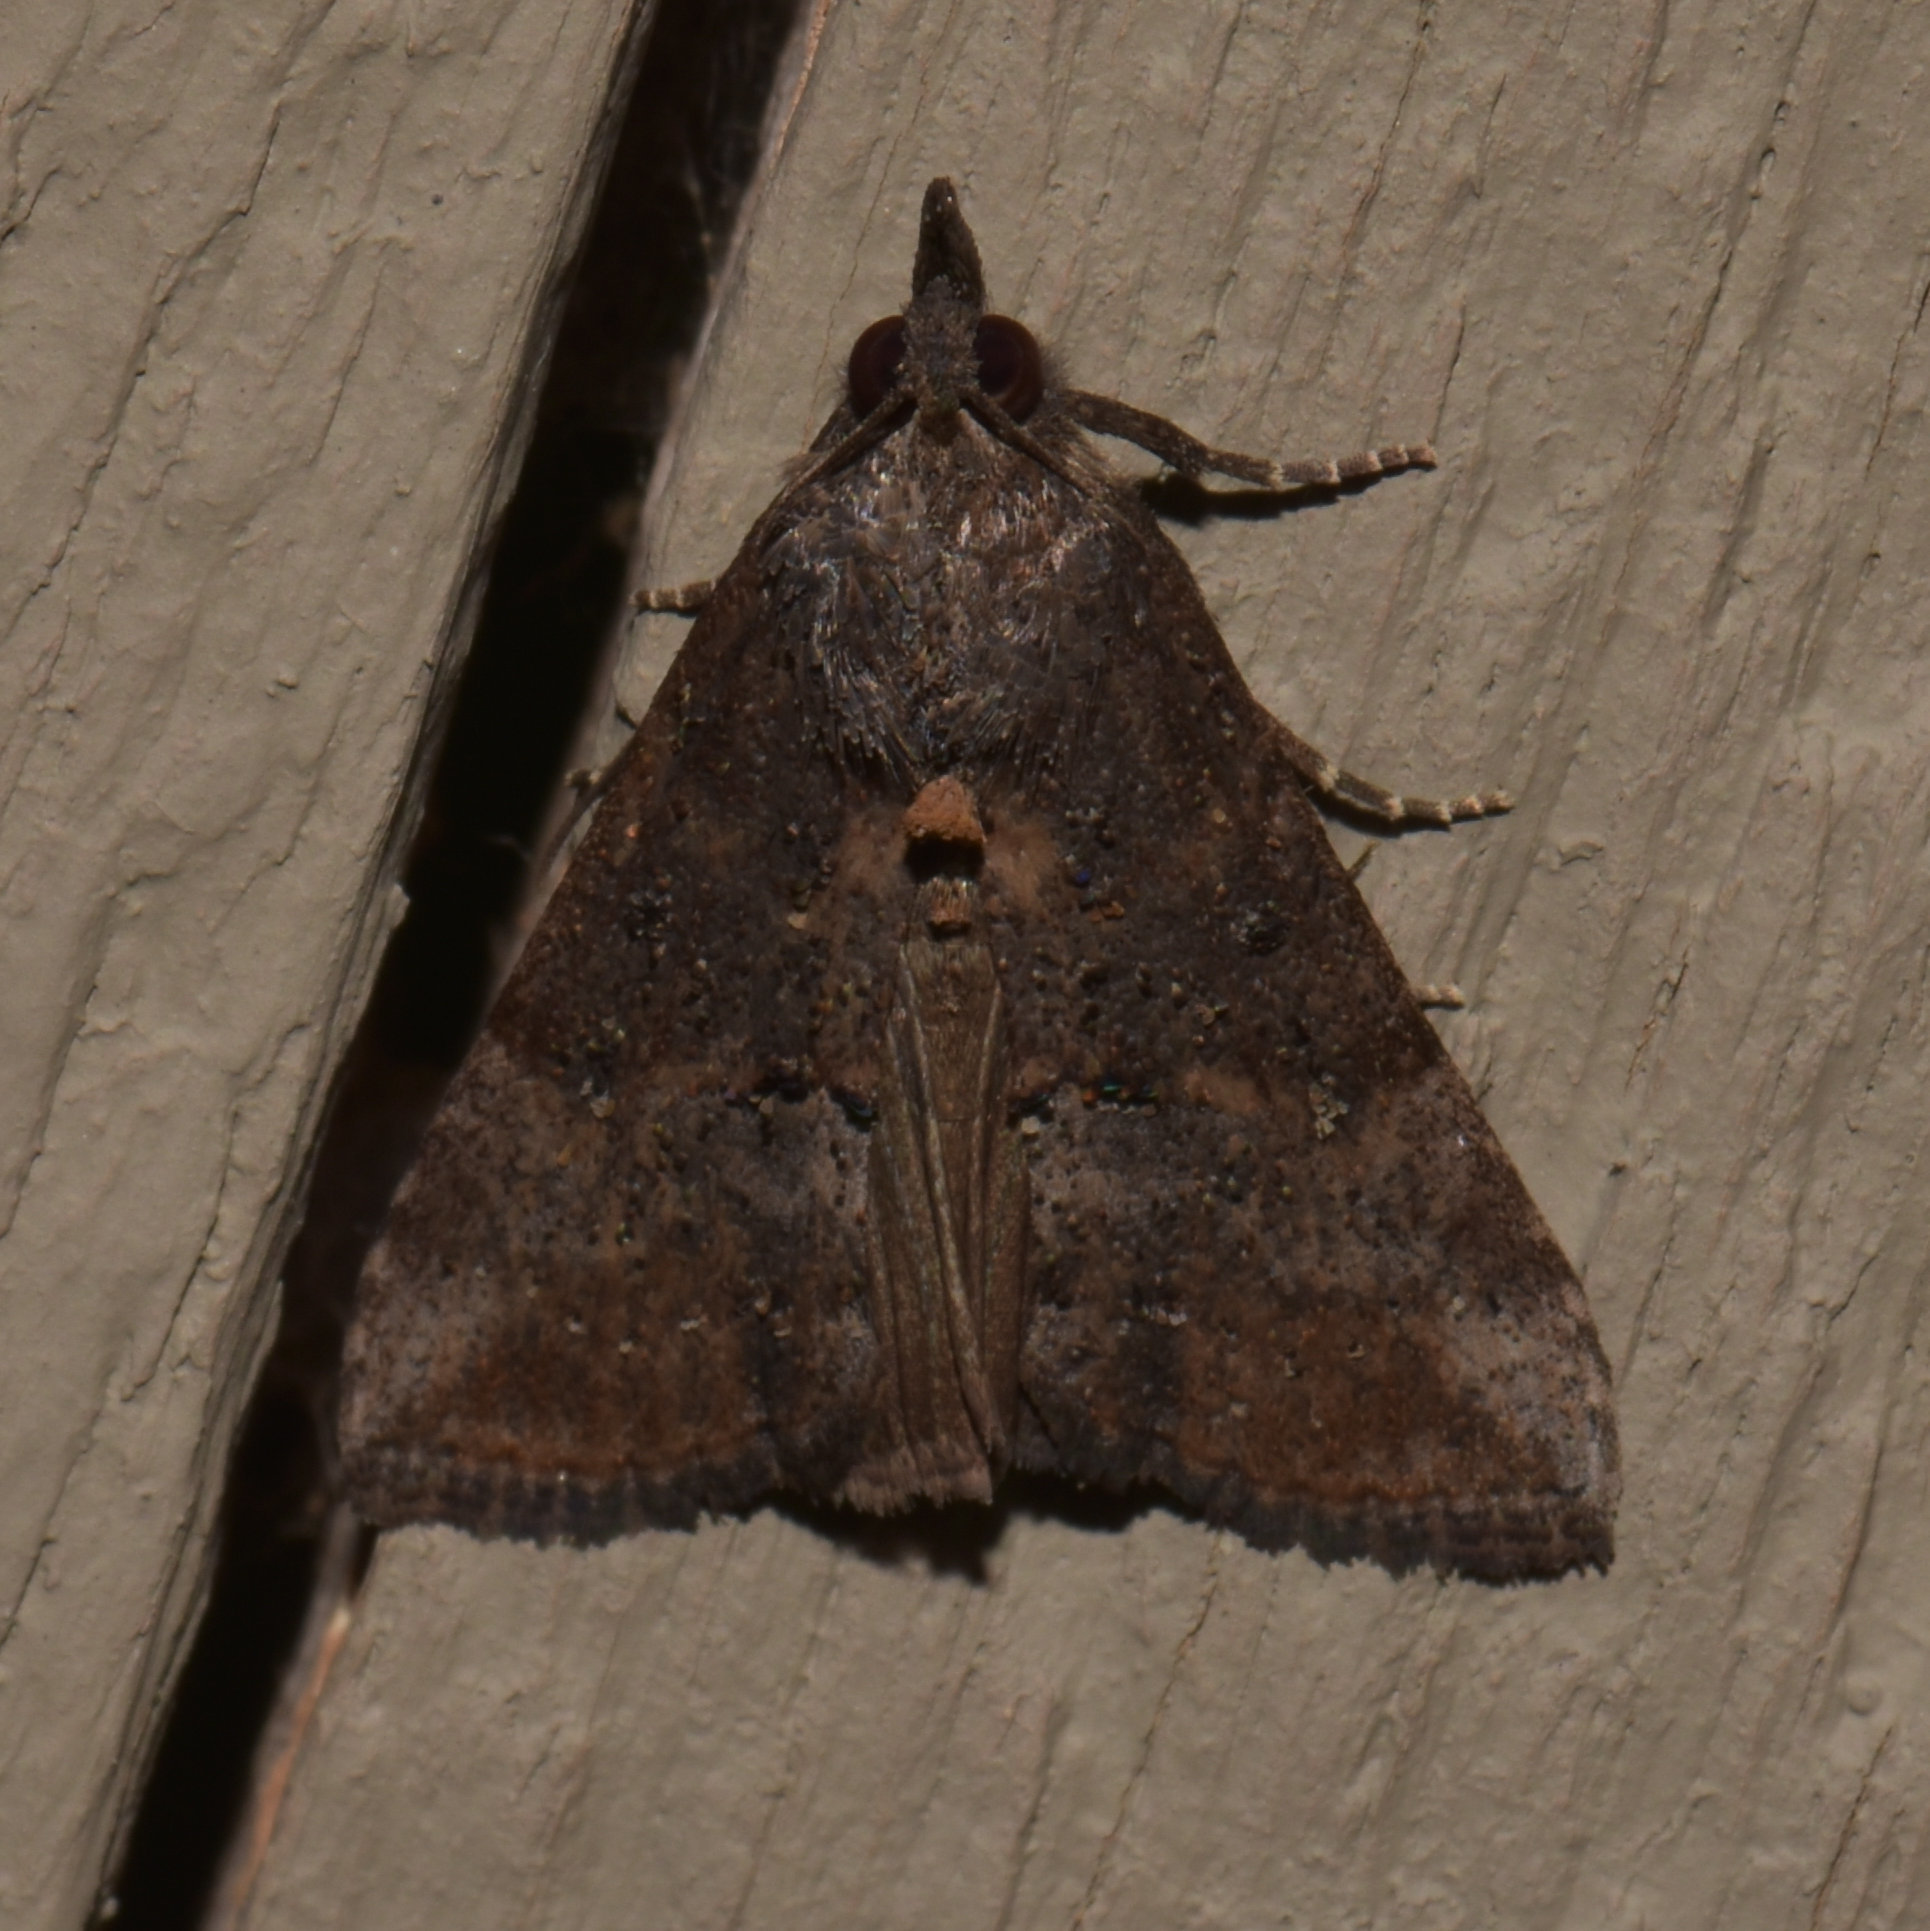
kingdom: Animalia
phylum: Arthropoda
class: Insecta
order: Lepidoptera
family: Erebidae
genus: Hypena
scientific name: Hypena scabra
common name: Green cloverworm
